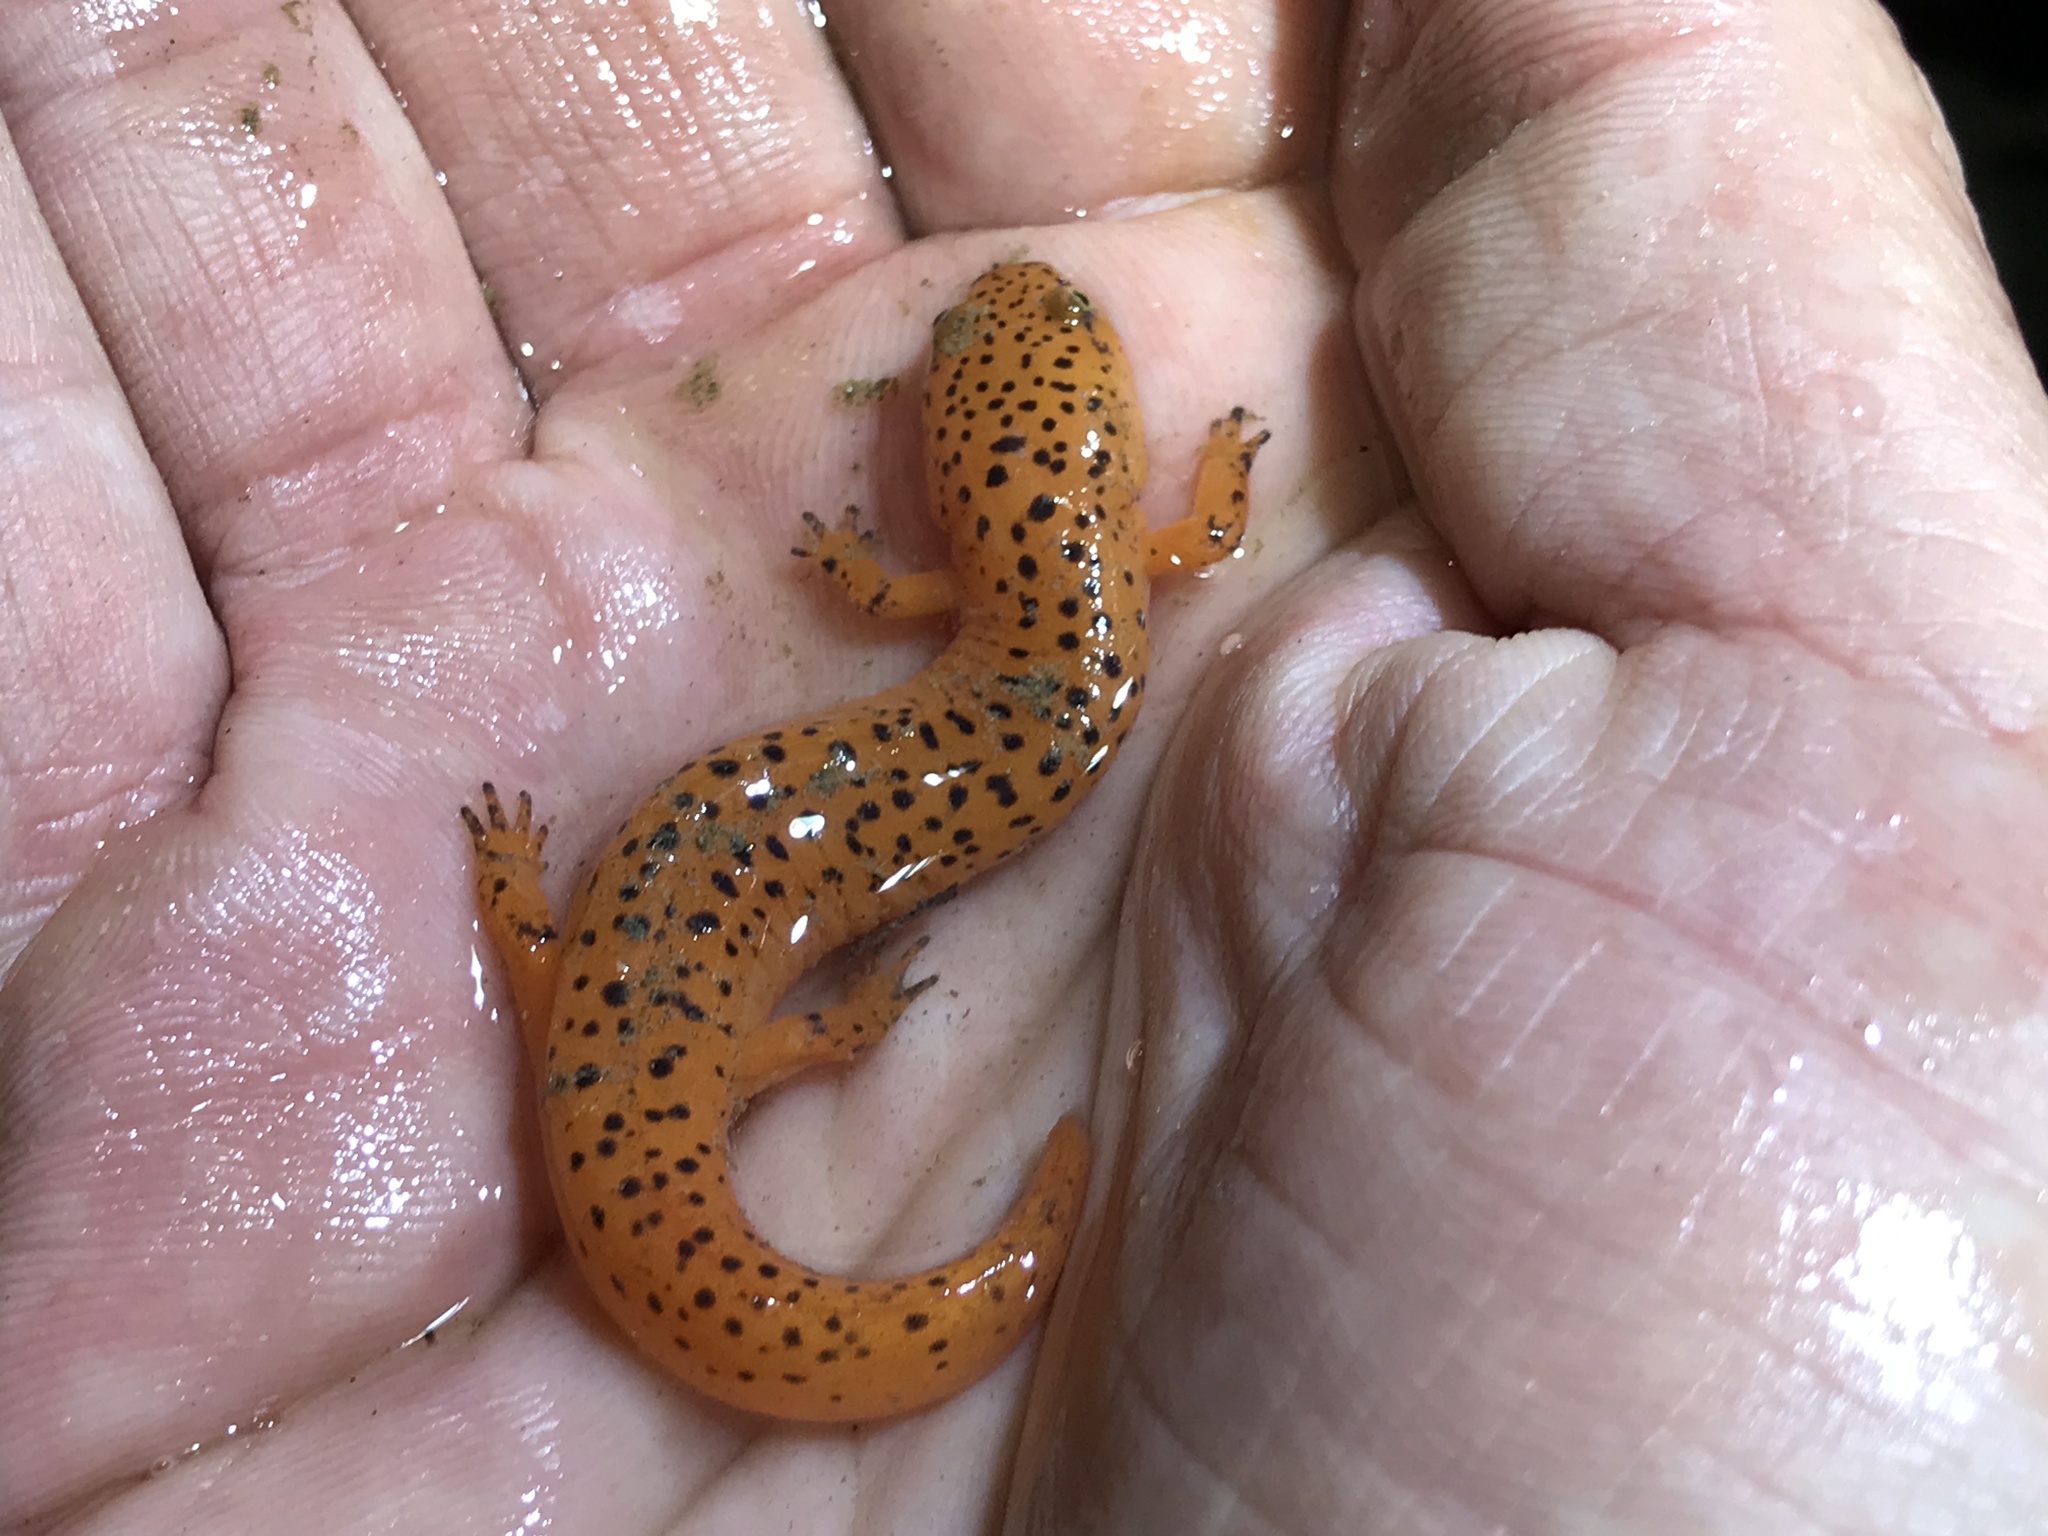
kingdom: Animalia
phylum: Chordata
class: Amphibia
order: Caudata
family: Plethodontidae
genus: Pseudotriton
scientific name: Pseudotriton ruber
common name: Red salamander
